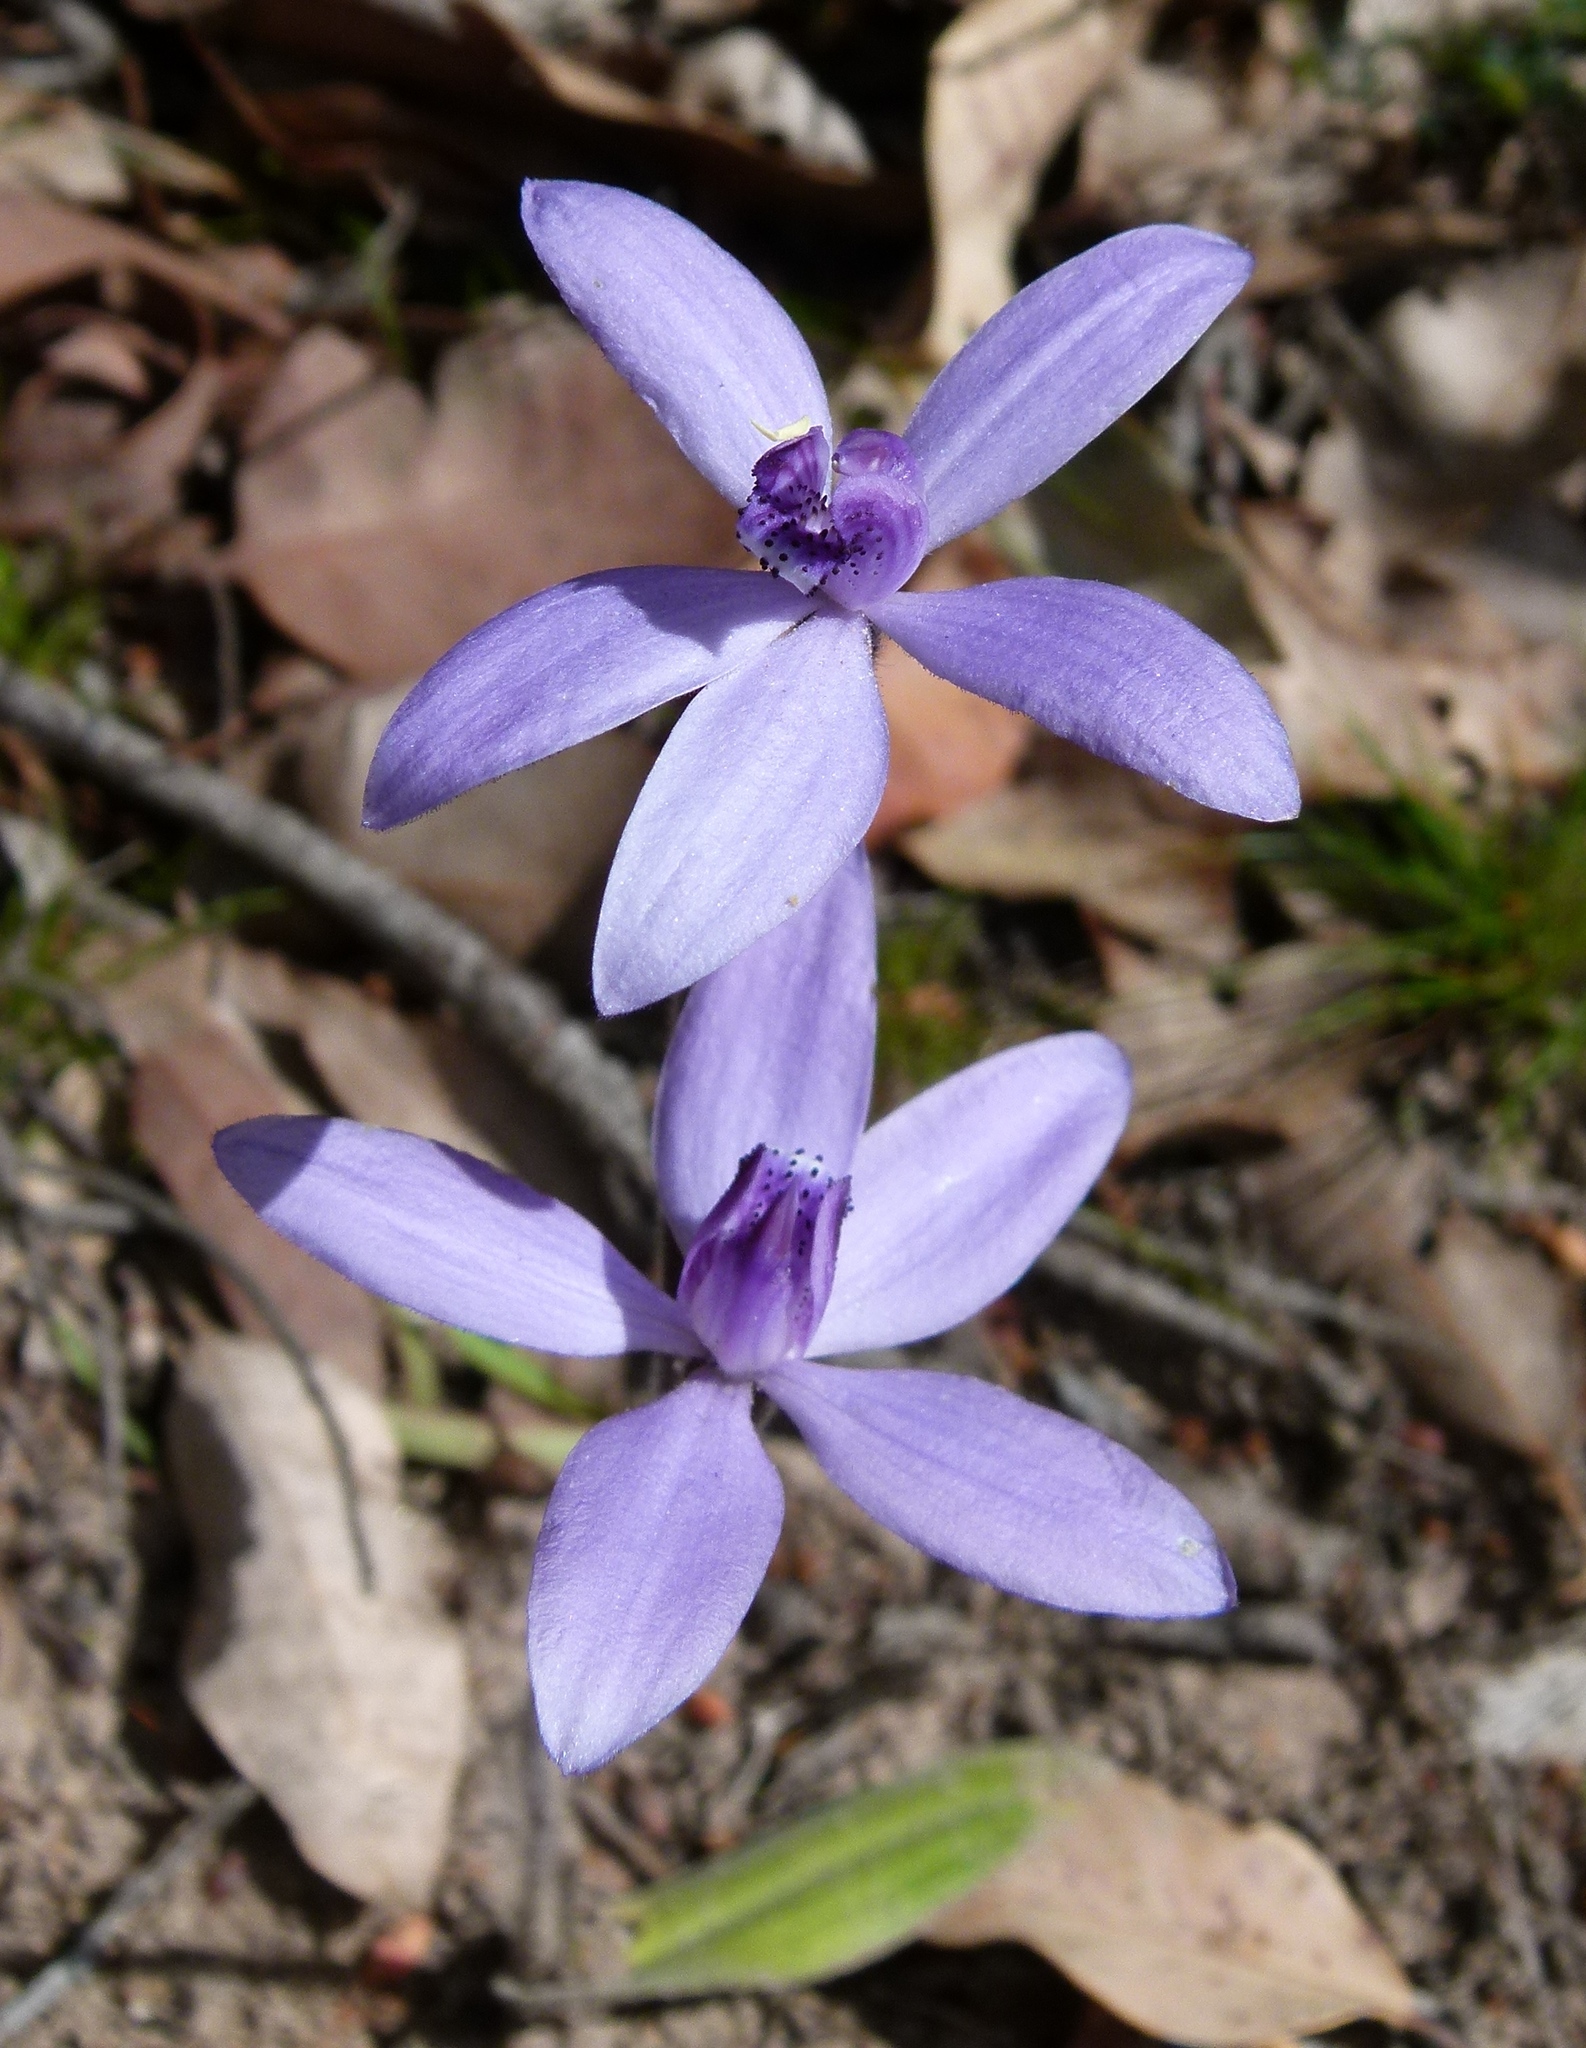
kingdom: Plantae
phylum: Tracheophyta
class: Liliopsida
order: Asparagales
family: Orchidaceae
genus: Caladenia
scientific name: Caladenia sericea
